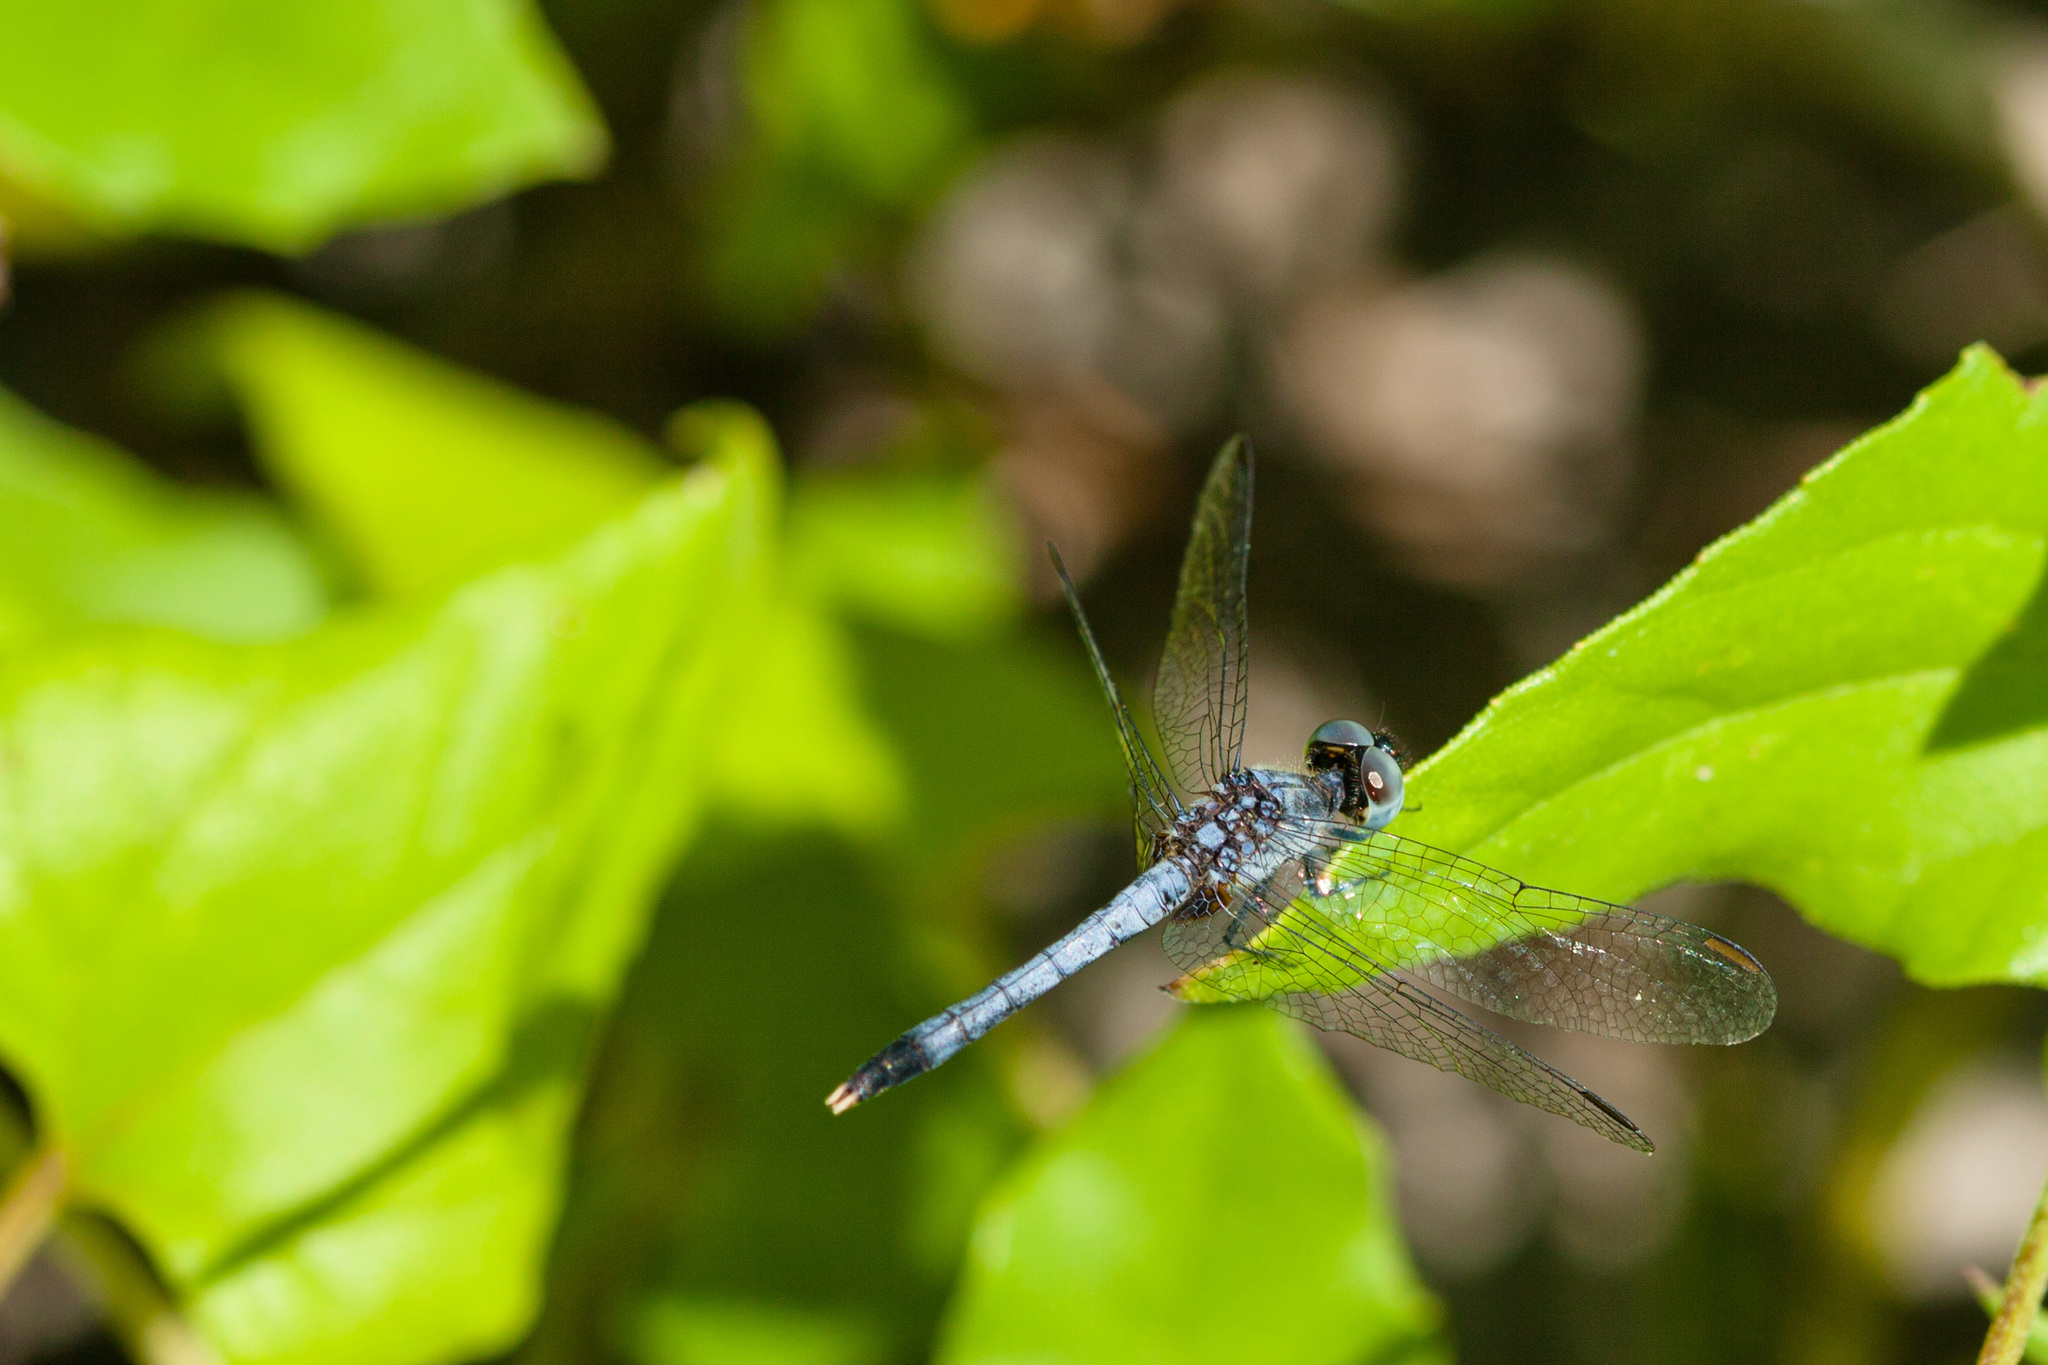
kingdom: Animalia
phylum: Arthropoda
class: Insecta
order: Odonata
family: Libellulidae
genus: Erythrodiplax
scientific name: Erythrodiplax minuscula
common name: Little blue dragonlet
